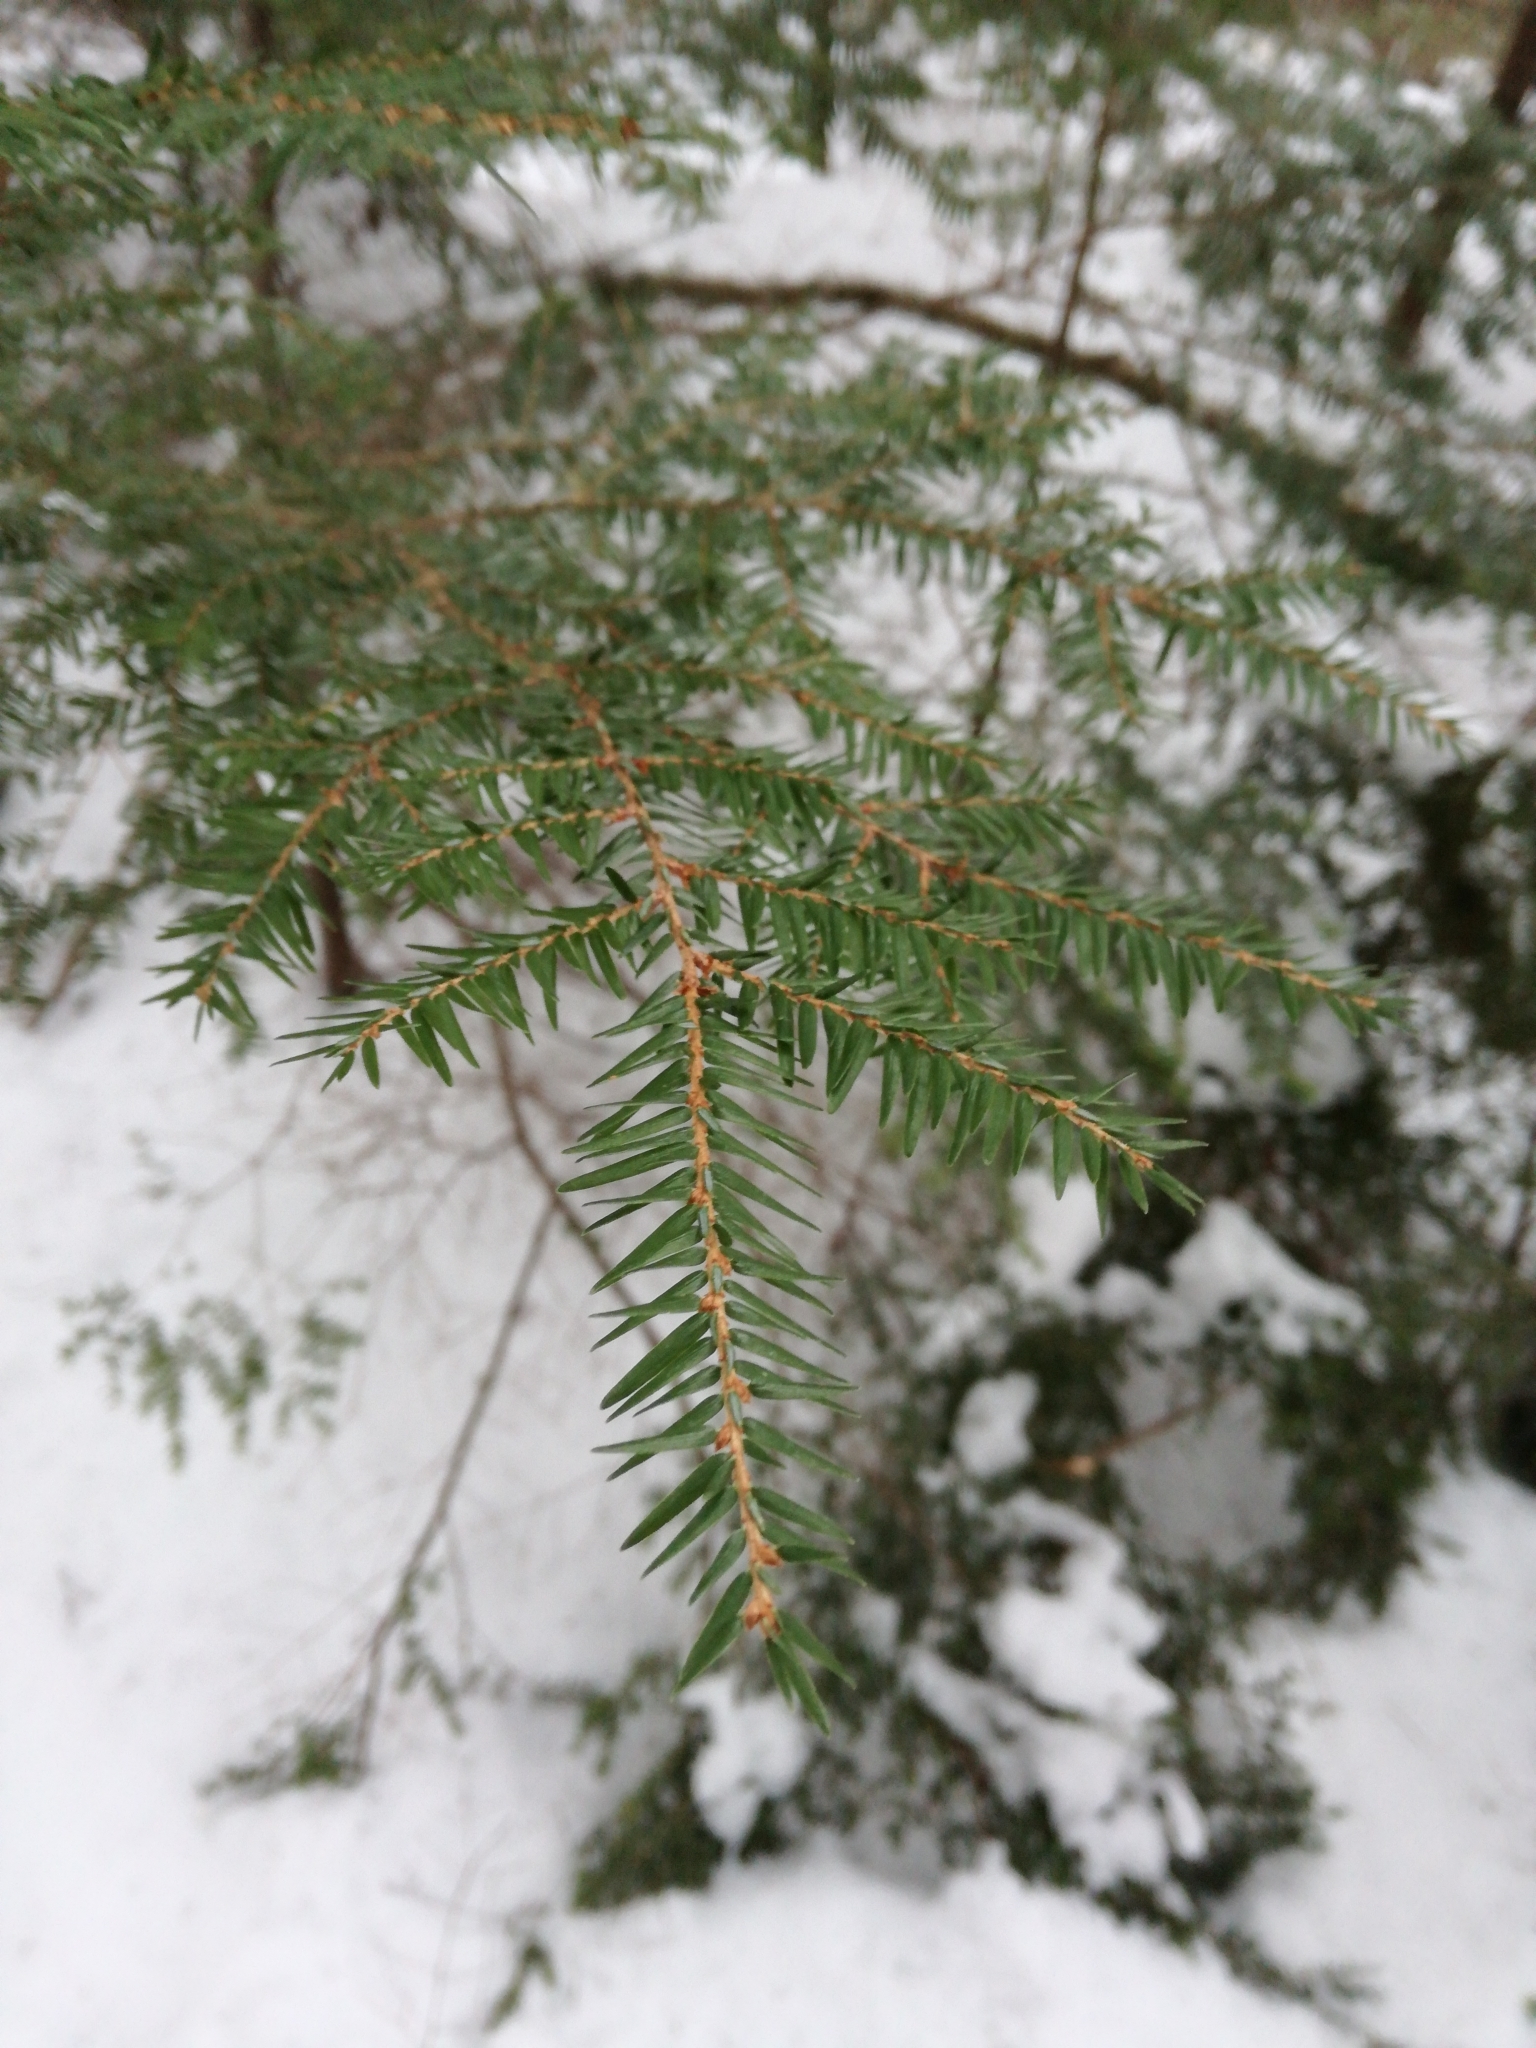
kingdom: Plantae
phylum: Tracheophyta
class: Pinopsida
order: Pinales
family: Pinaceae
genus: Tsuga
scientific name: Tsuga canadensis
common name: Eastern hemlock
